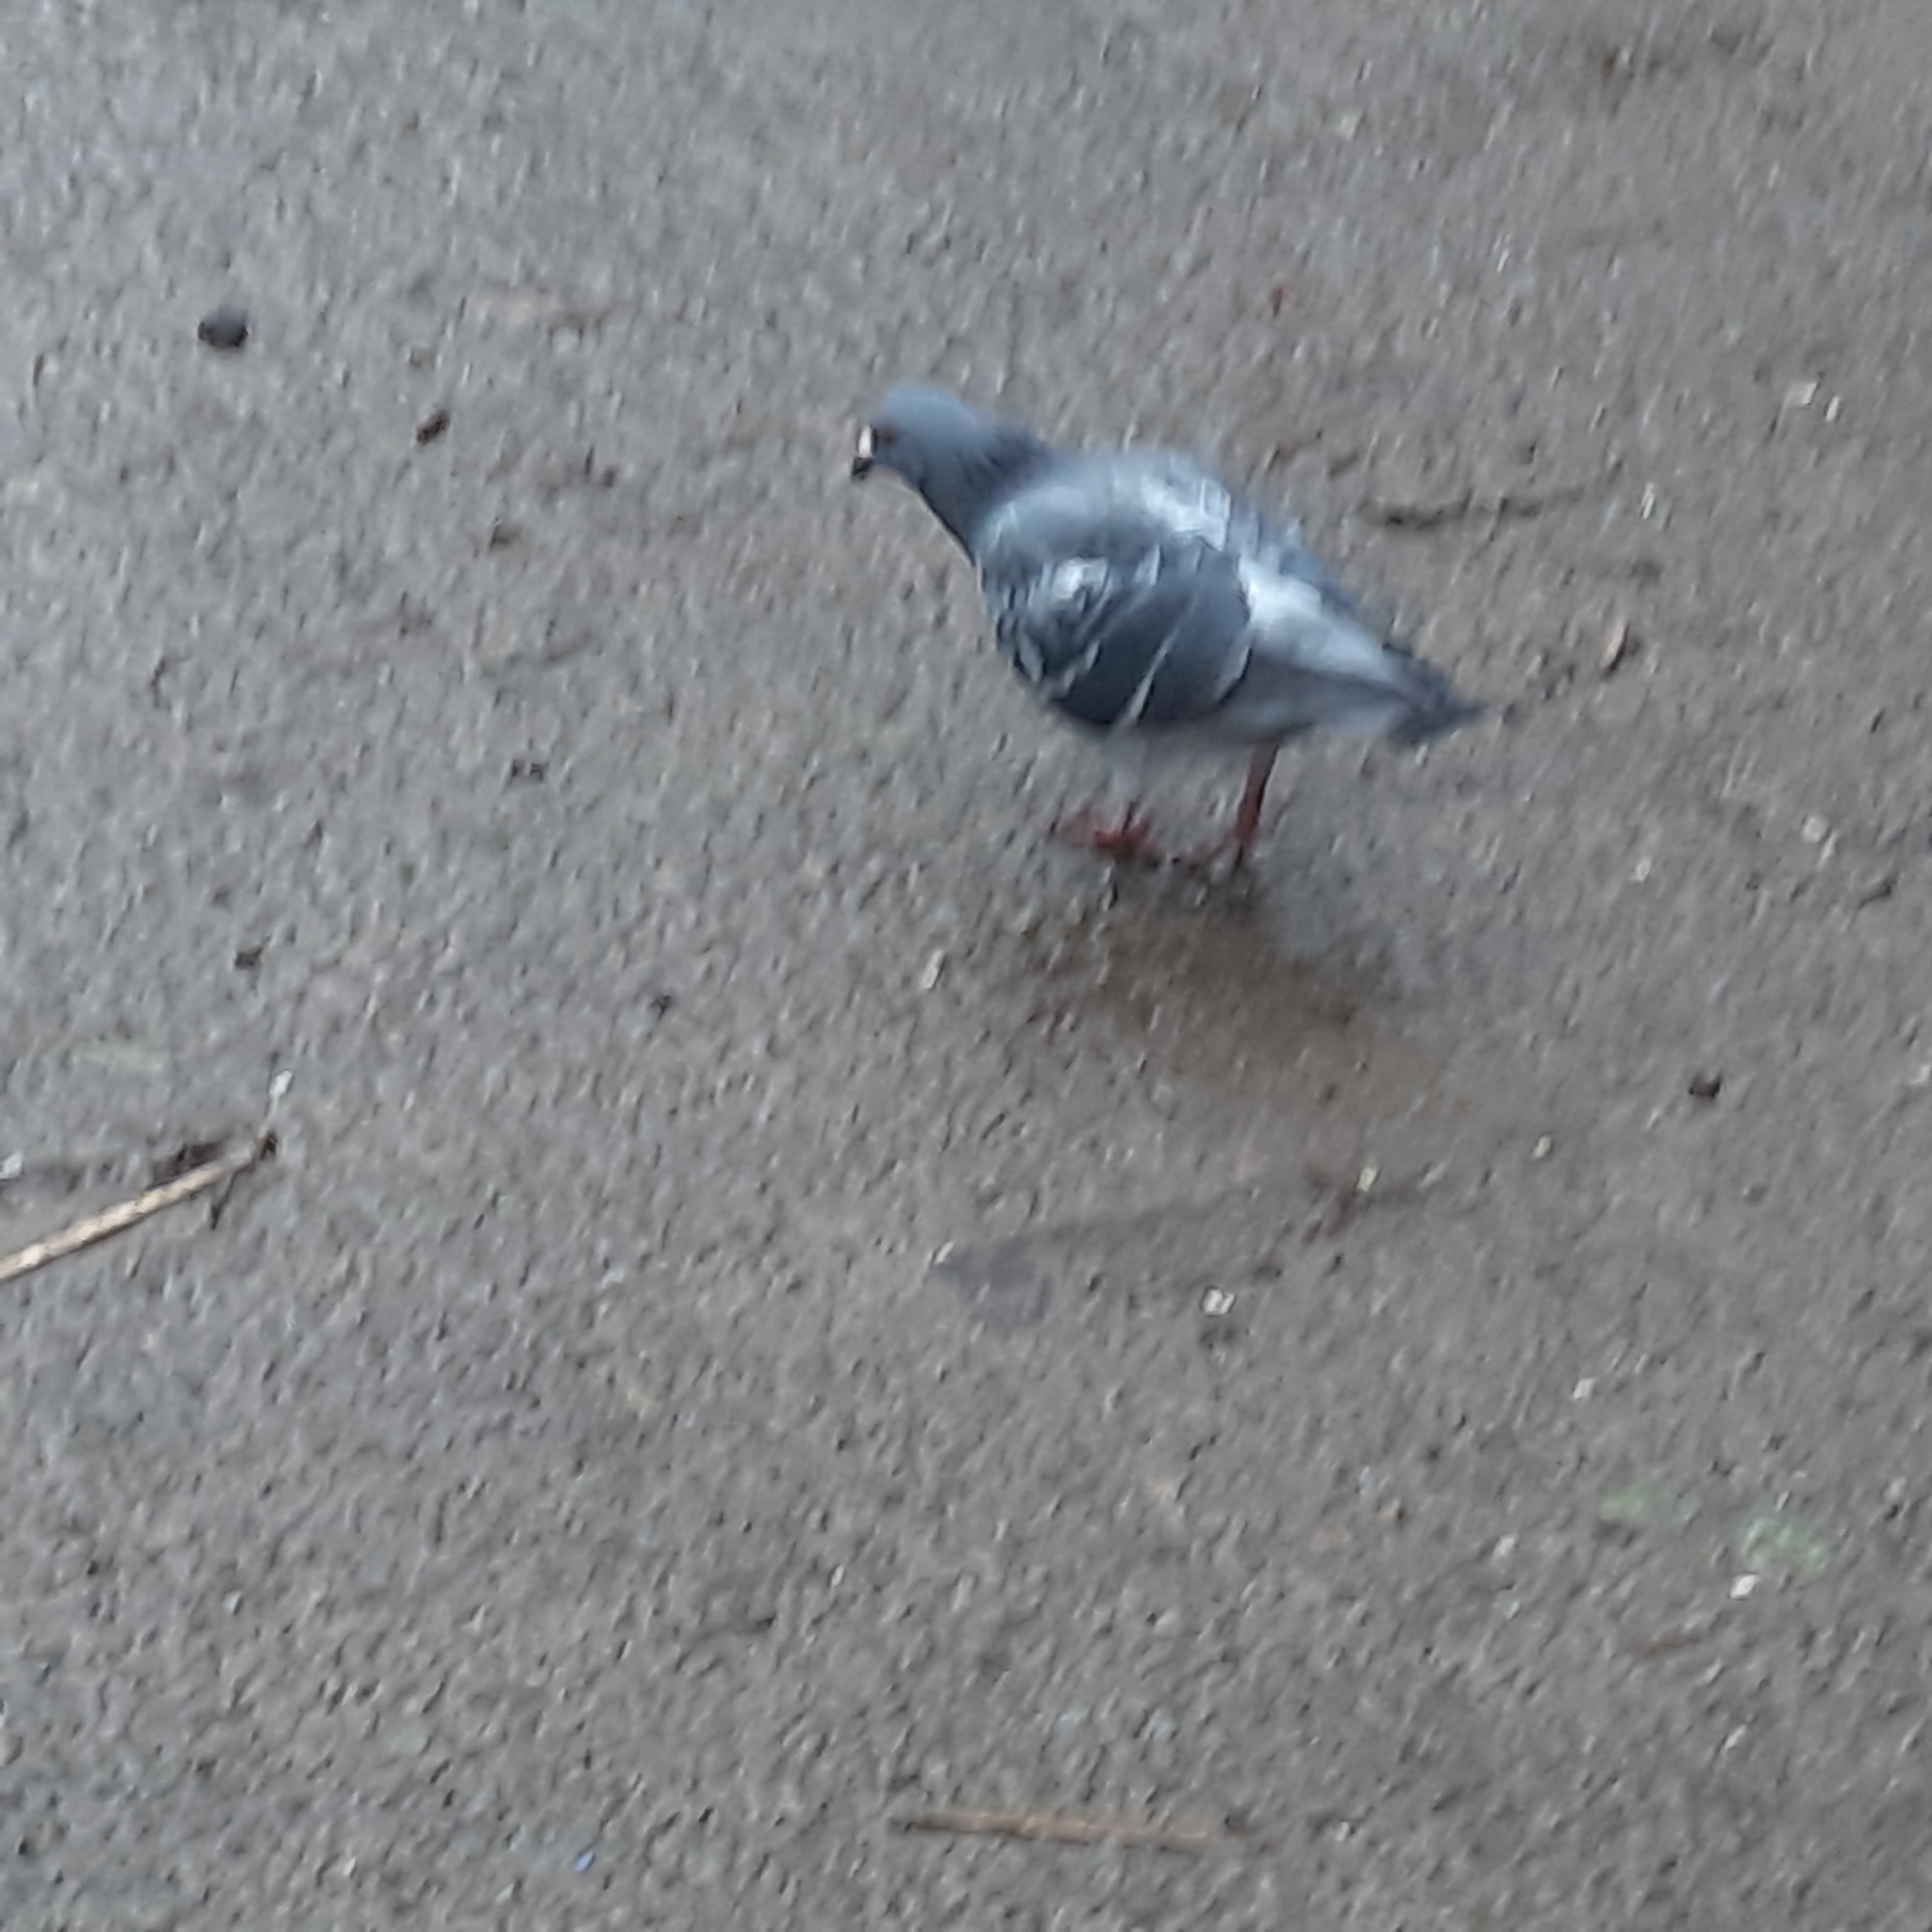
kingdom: Animalia
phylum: Chordata
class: Aves
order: Columbiformes
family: Columbidae
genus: Columba
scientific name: Columba livia
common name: Rock pigeon
